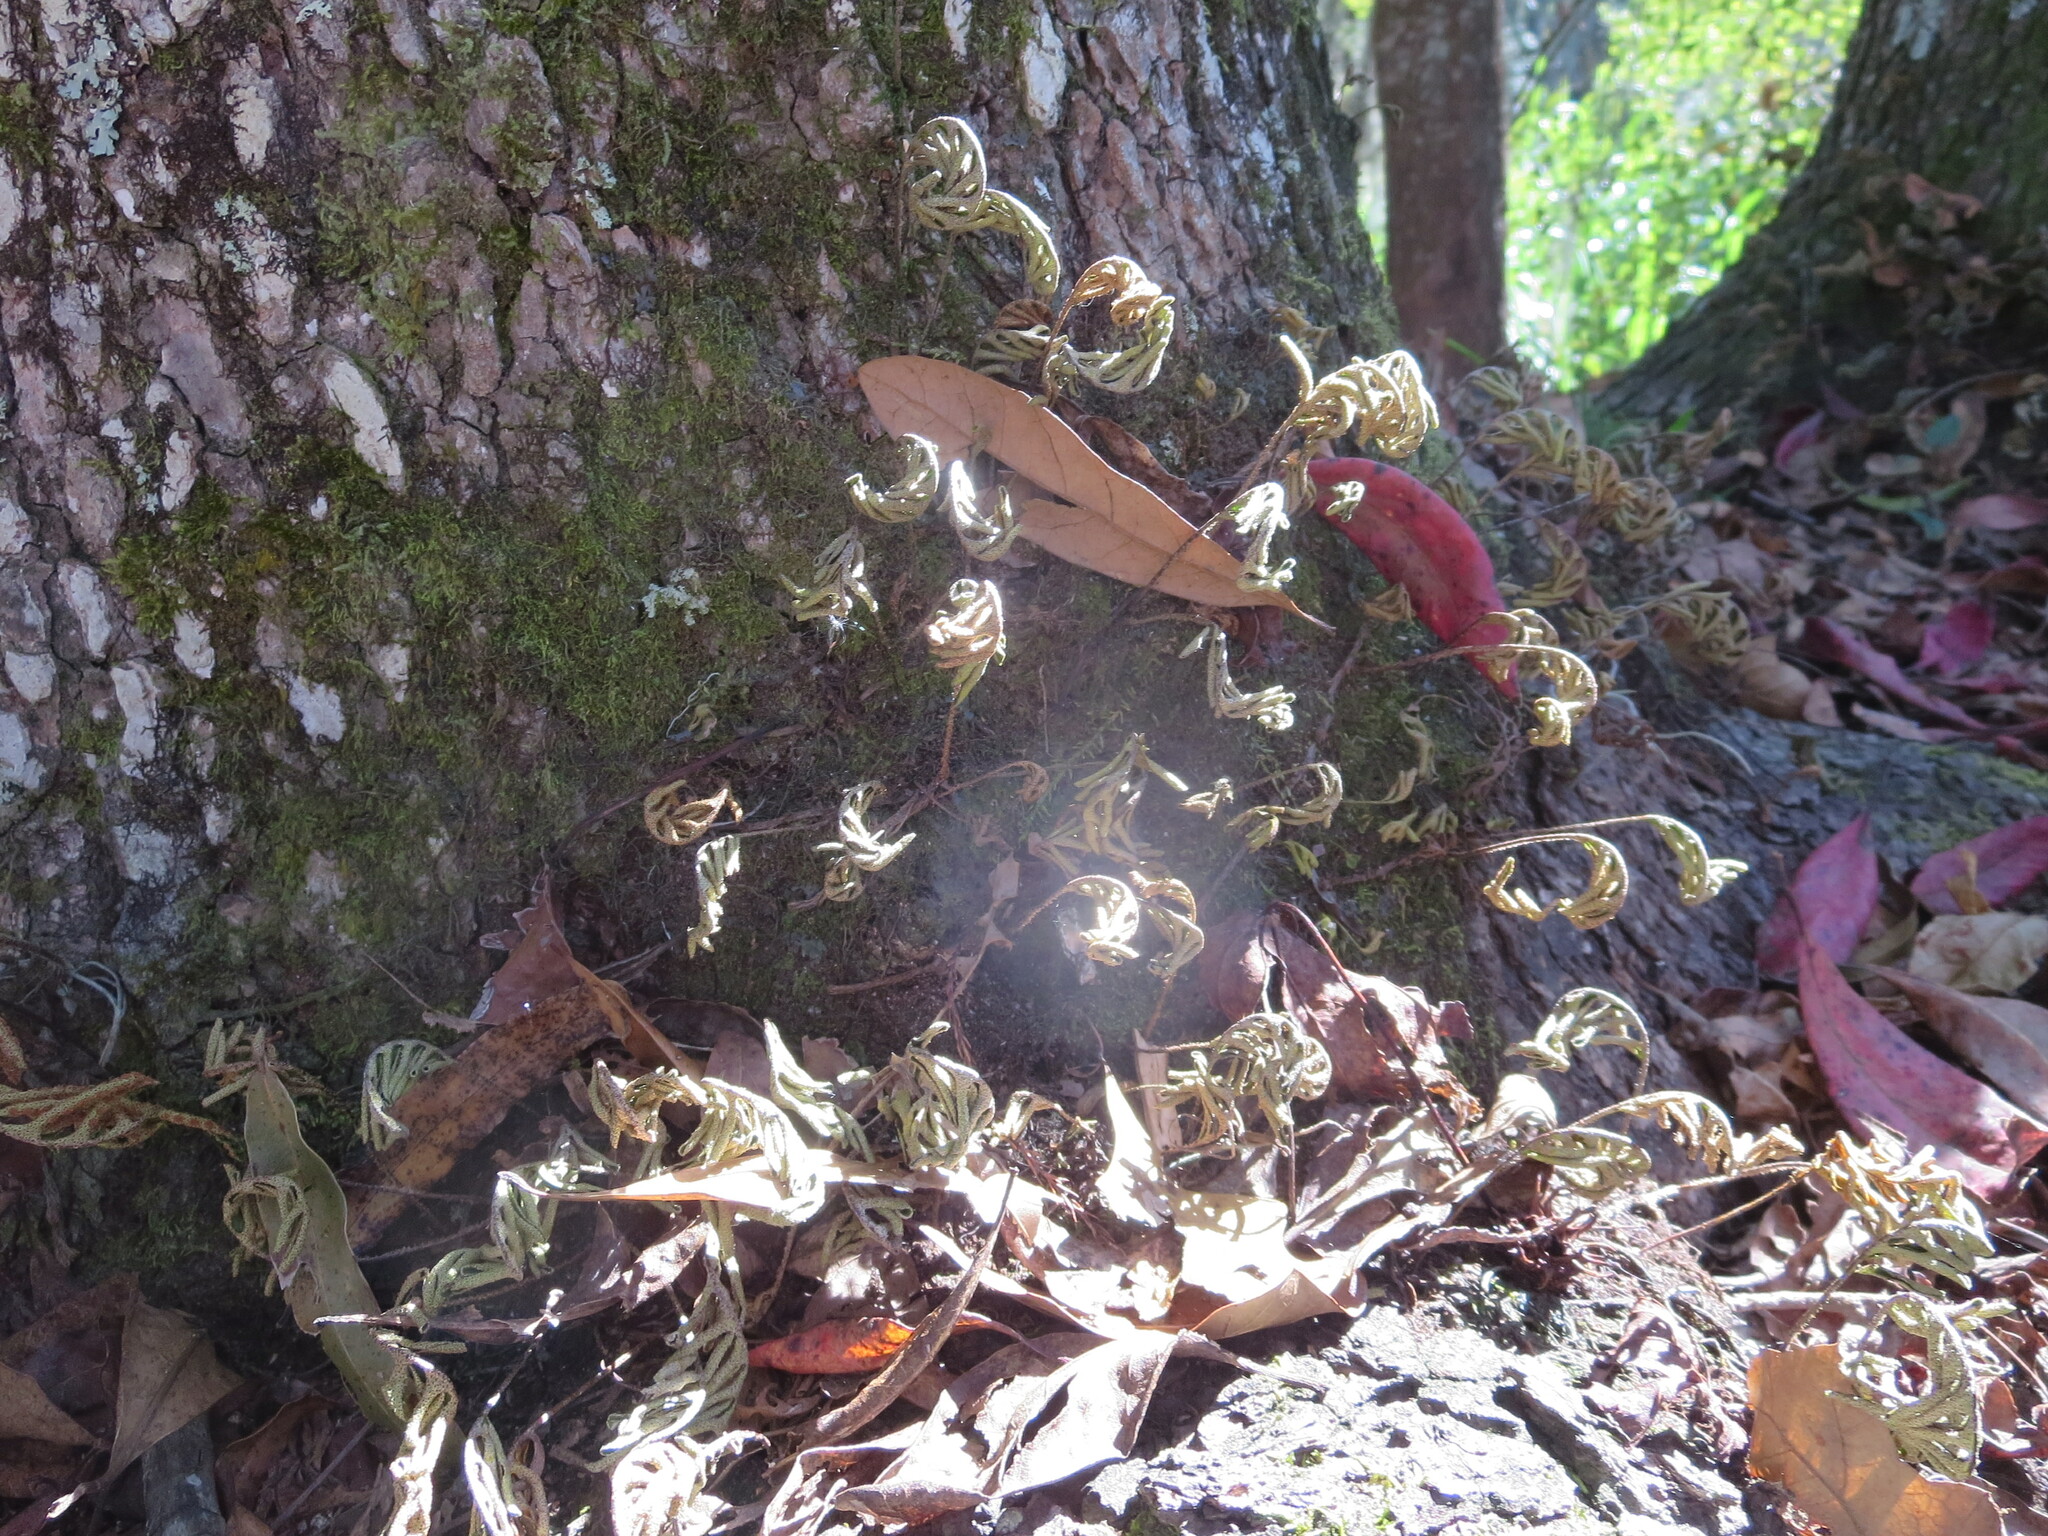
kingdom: Plantae
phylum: Tracheophyta
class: Polypodiopsida
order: Polypodiales
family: Polypodiaceae
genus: Pleopeltis
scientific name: Pleopeltis michauxiana
